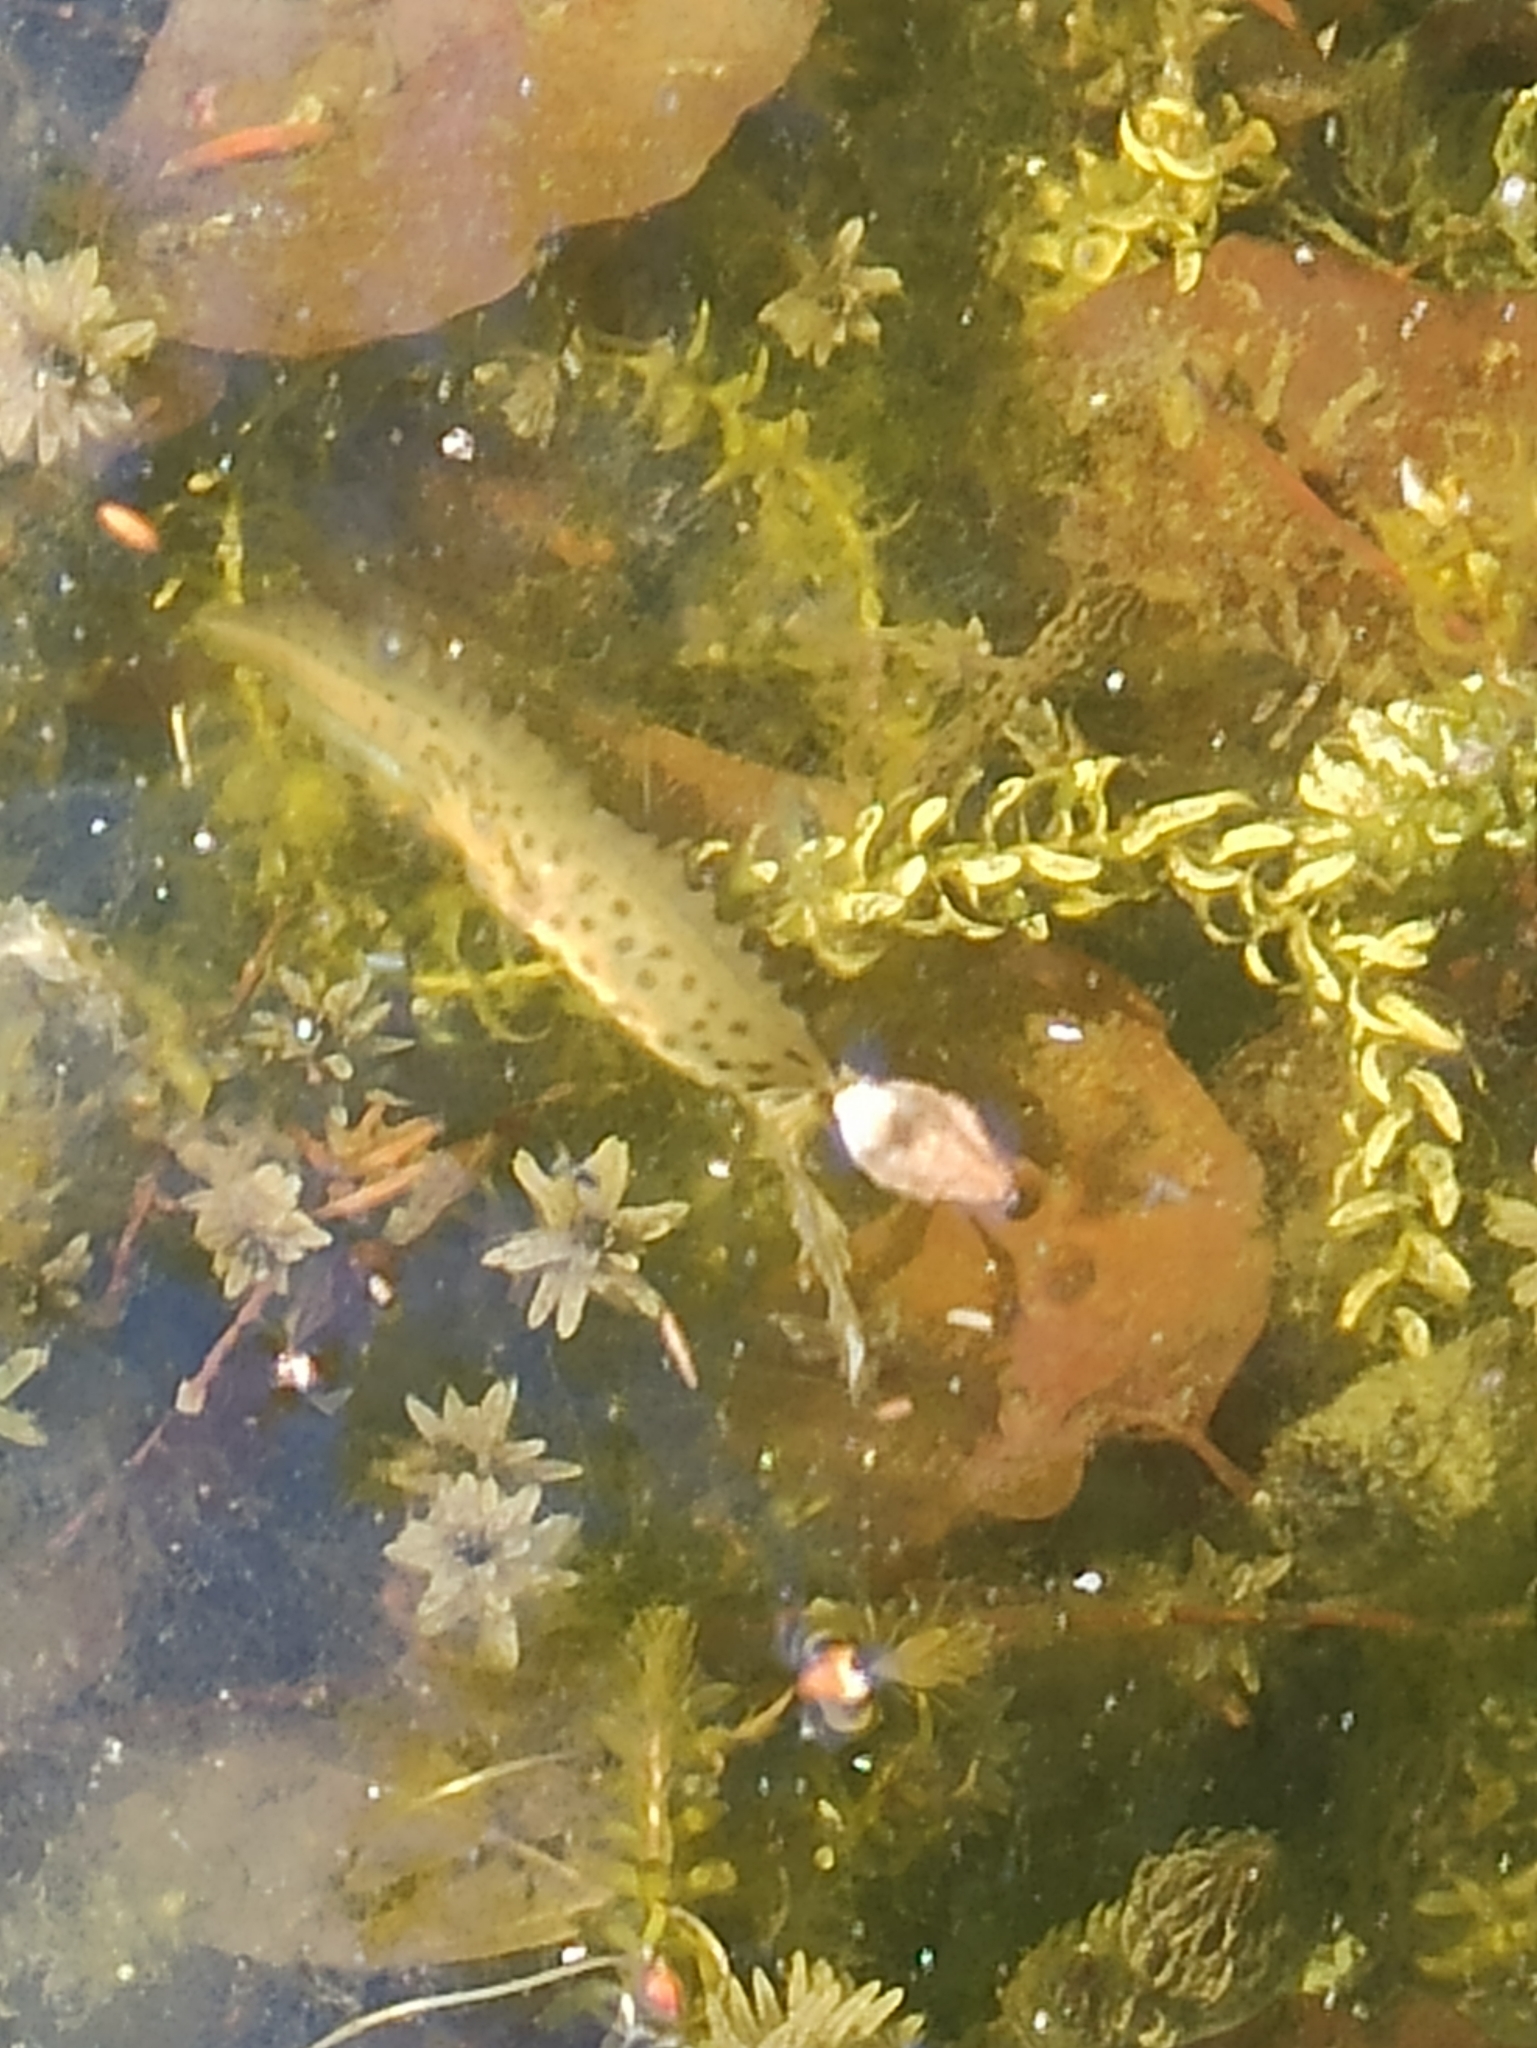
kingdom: Animalia
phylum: Chordata
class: Amphibia
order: Caudata
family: Salamandridae
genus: Lissotriton
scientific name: Lissotriton vulgaris
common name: Smooth newt
